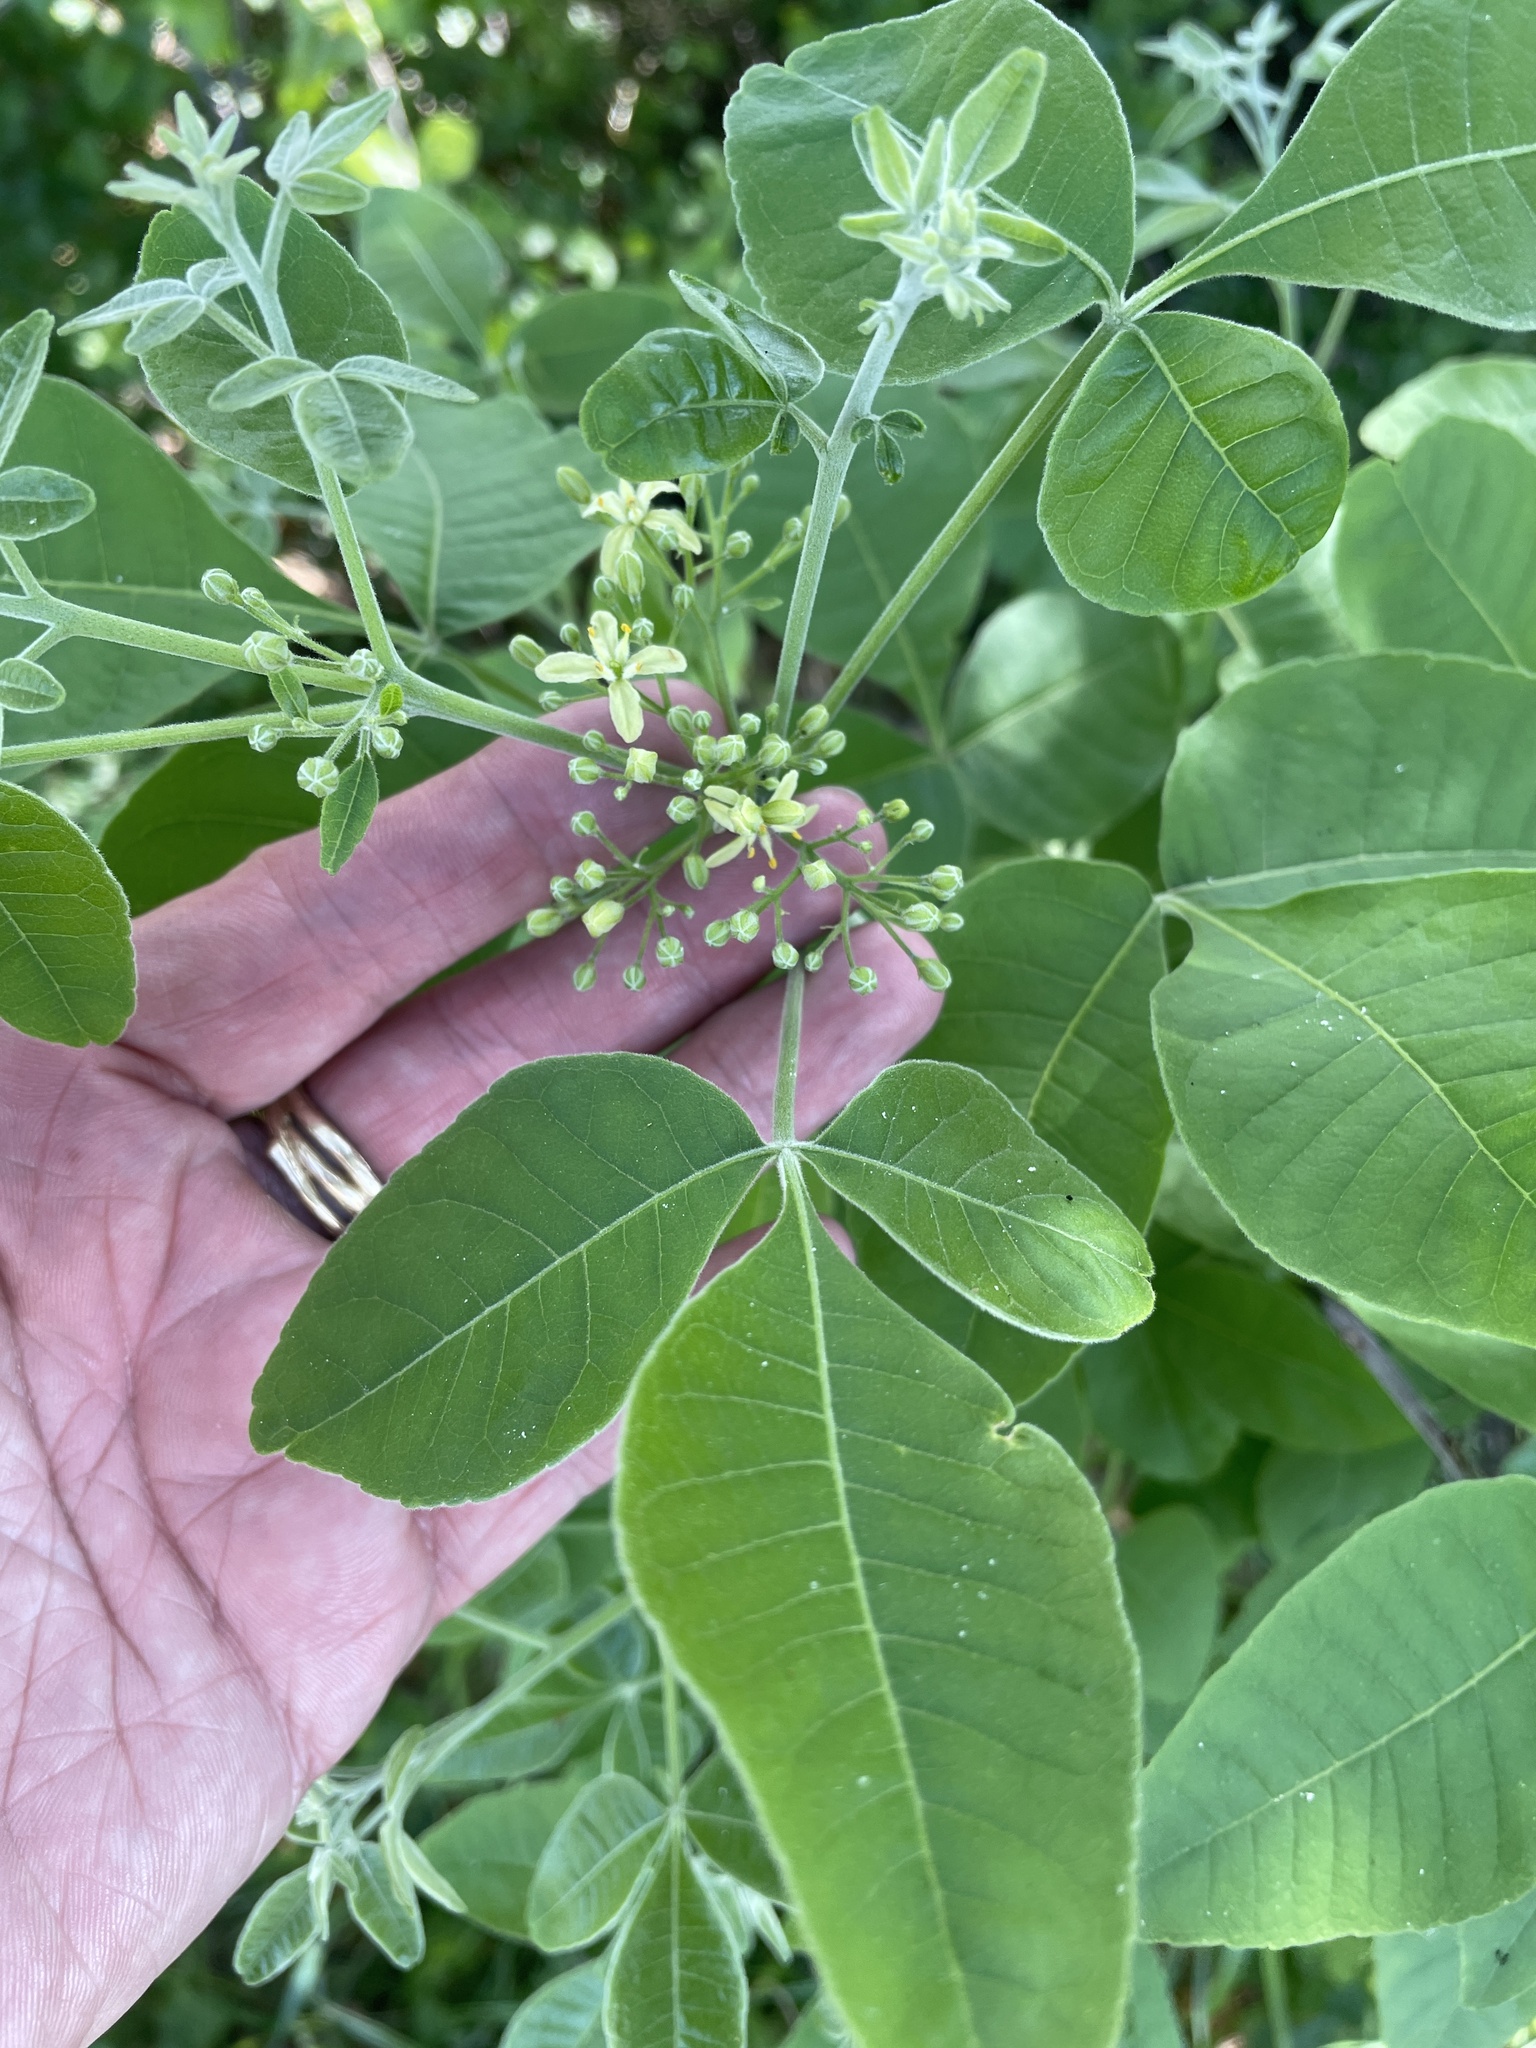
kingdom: Plantae
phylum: Tracheophyta
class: Magnoliopsida
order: Sapindales
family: Rutaceae
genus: Ptelea
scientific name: Ptelea trifoliata
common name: Common hop-tree
